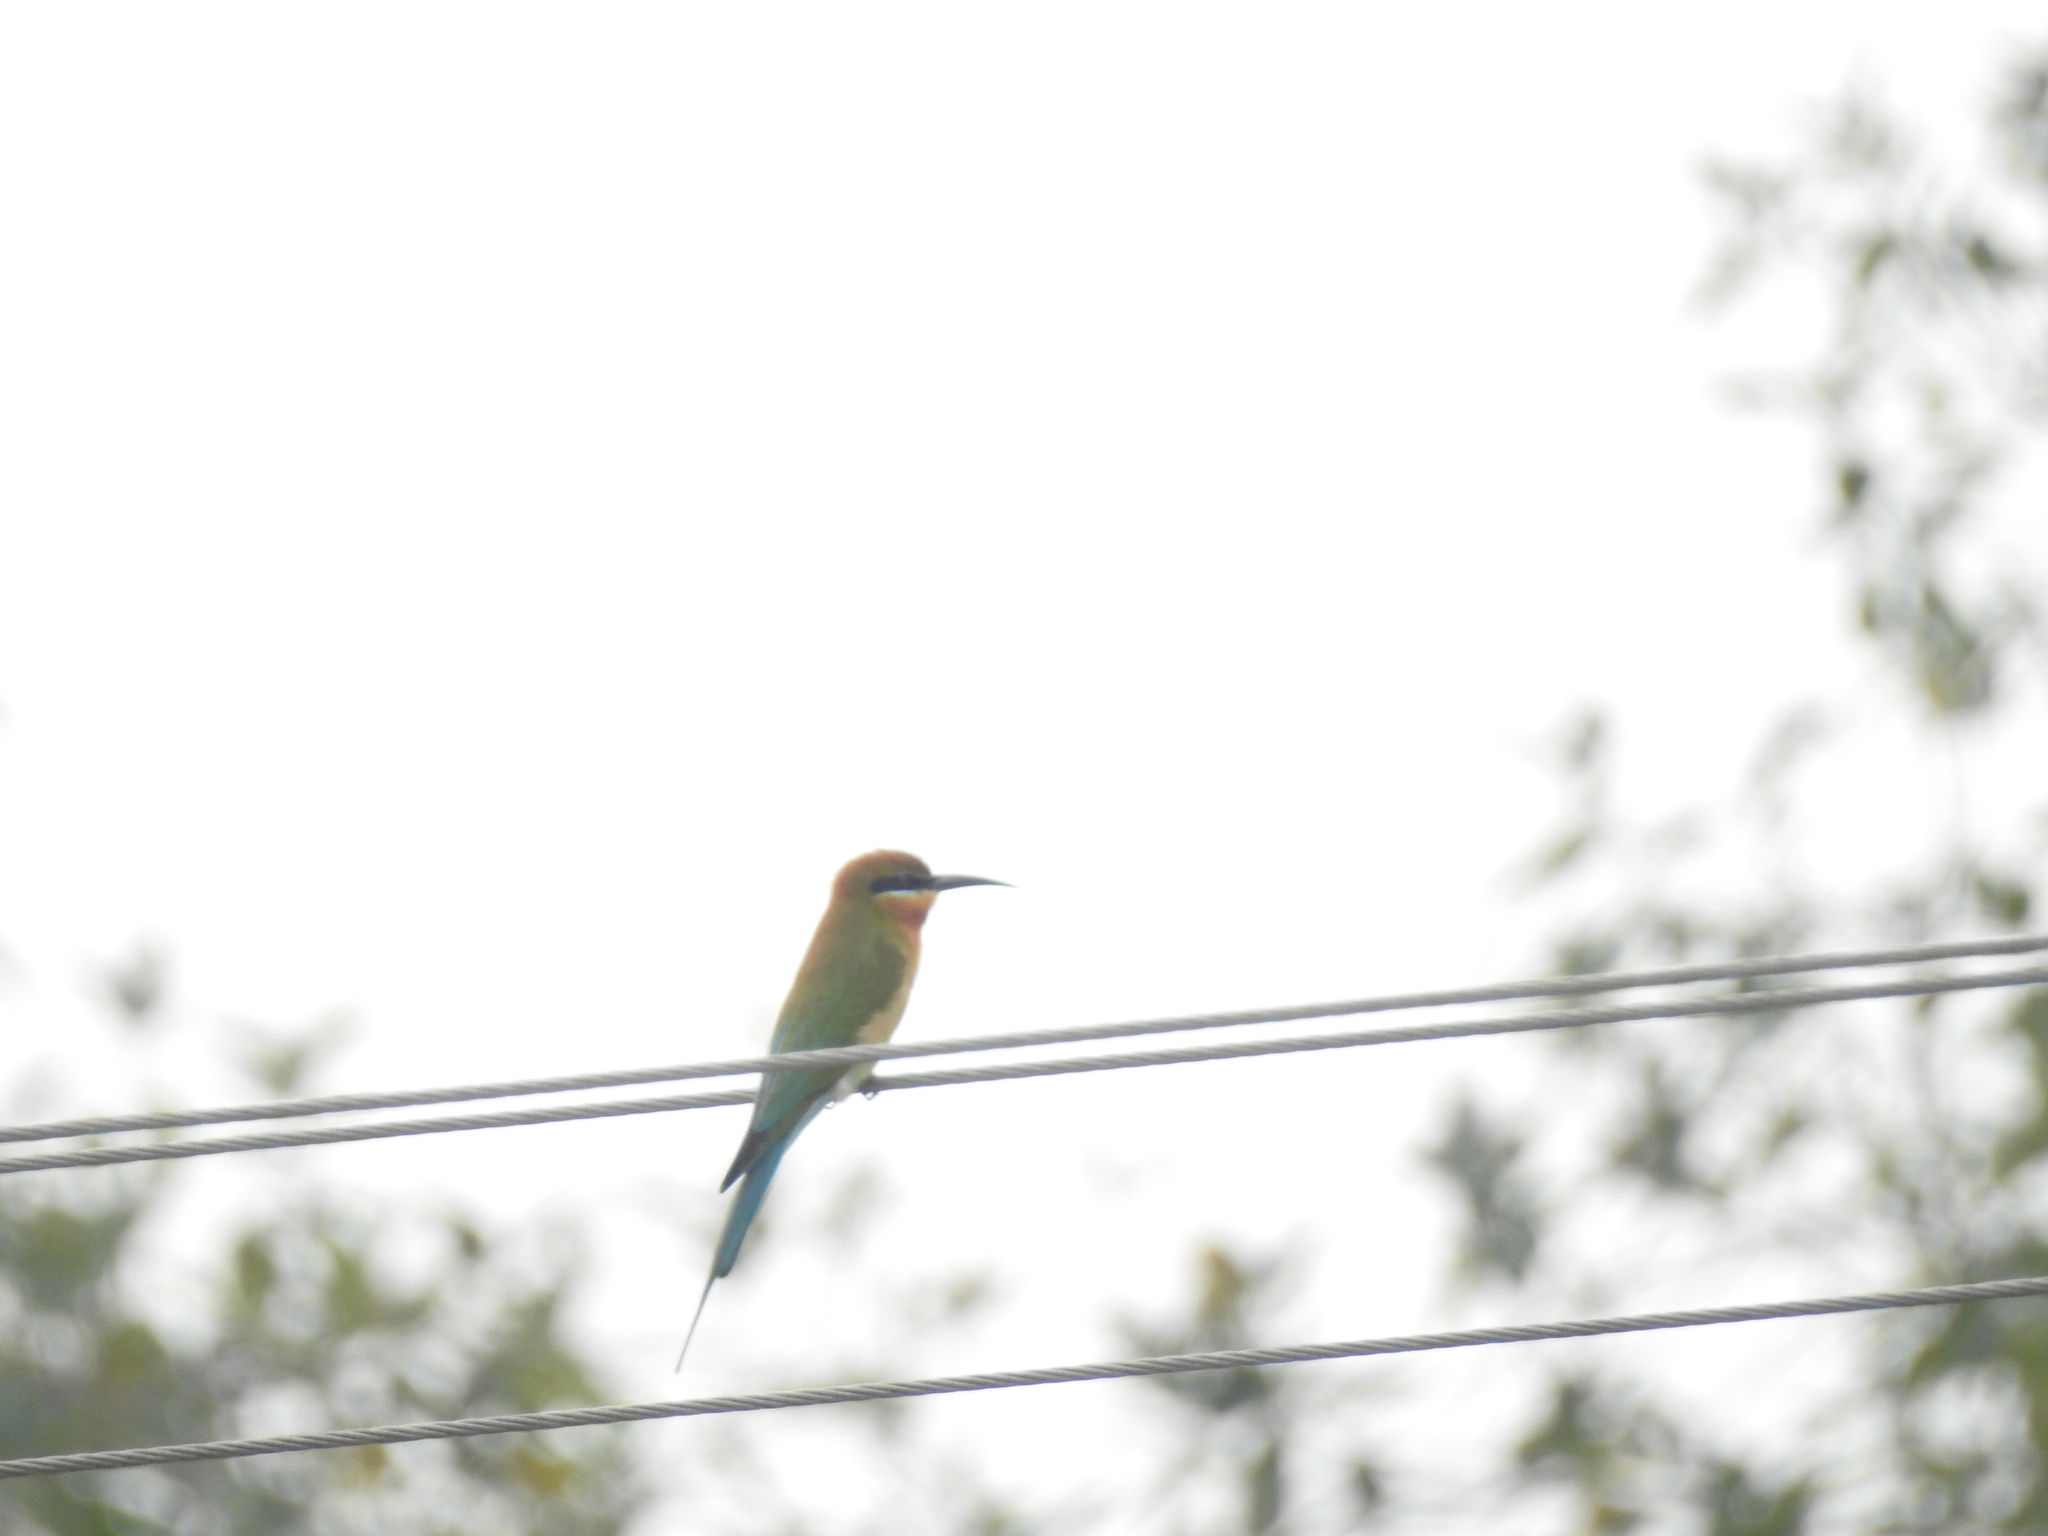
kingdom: Animalia
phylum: Chordata
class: Aves
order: Coraciiformes
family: Meropidae
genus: Merops
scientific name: Merops philippinus
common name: Blue-tailed bee-eater
